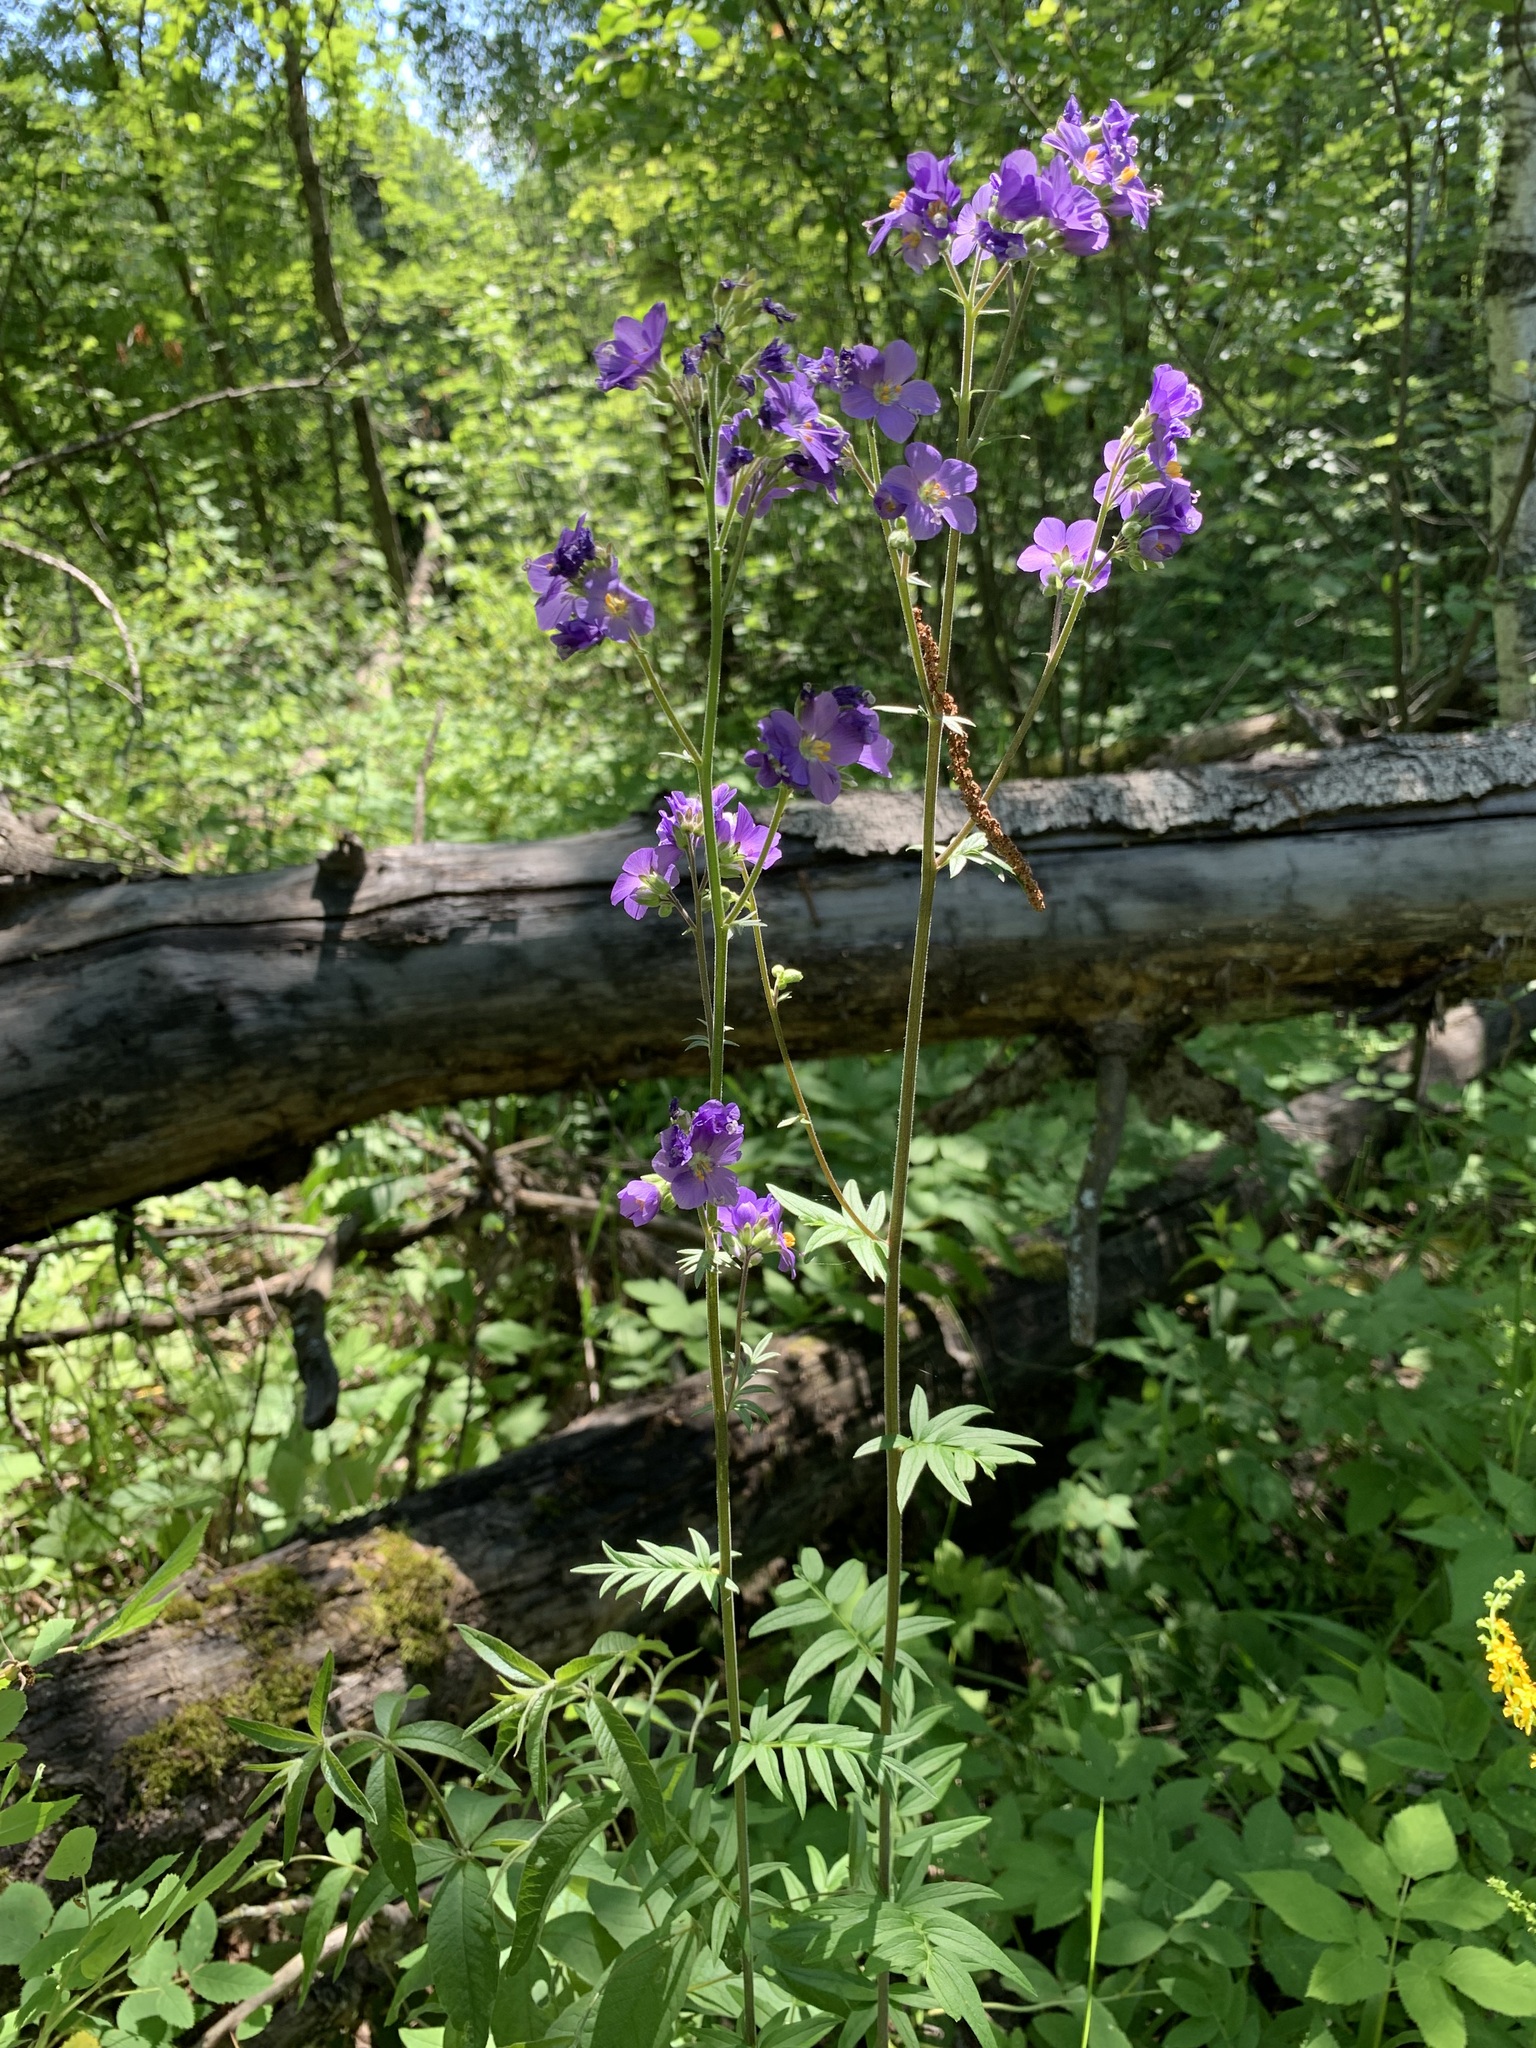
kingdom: Plantae
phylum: Tracheophyta
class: Magnoliopsida
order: Ericales
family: Polemoniaceae
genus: Polemonium
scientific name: Polemonium caeruleum
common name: Jacob's-ladder
